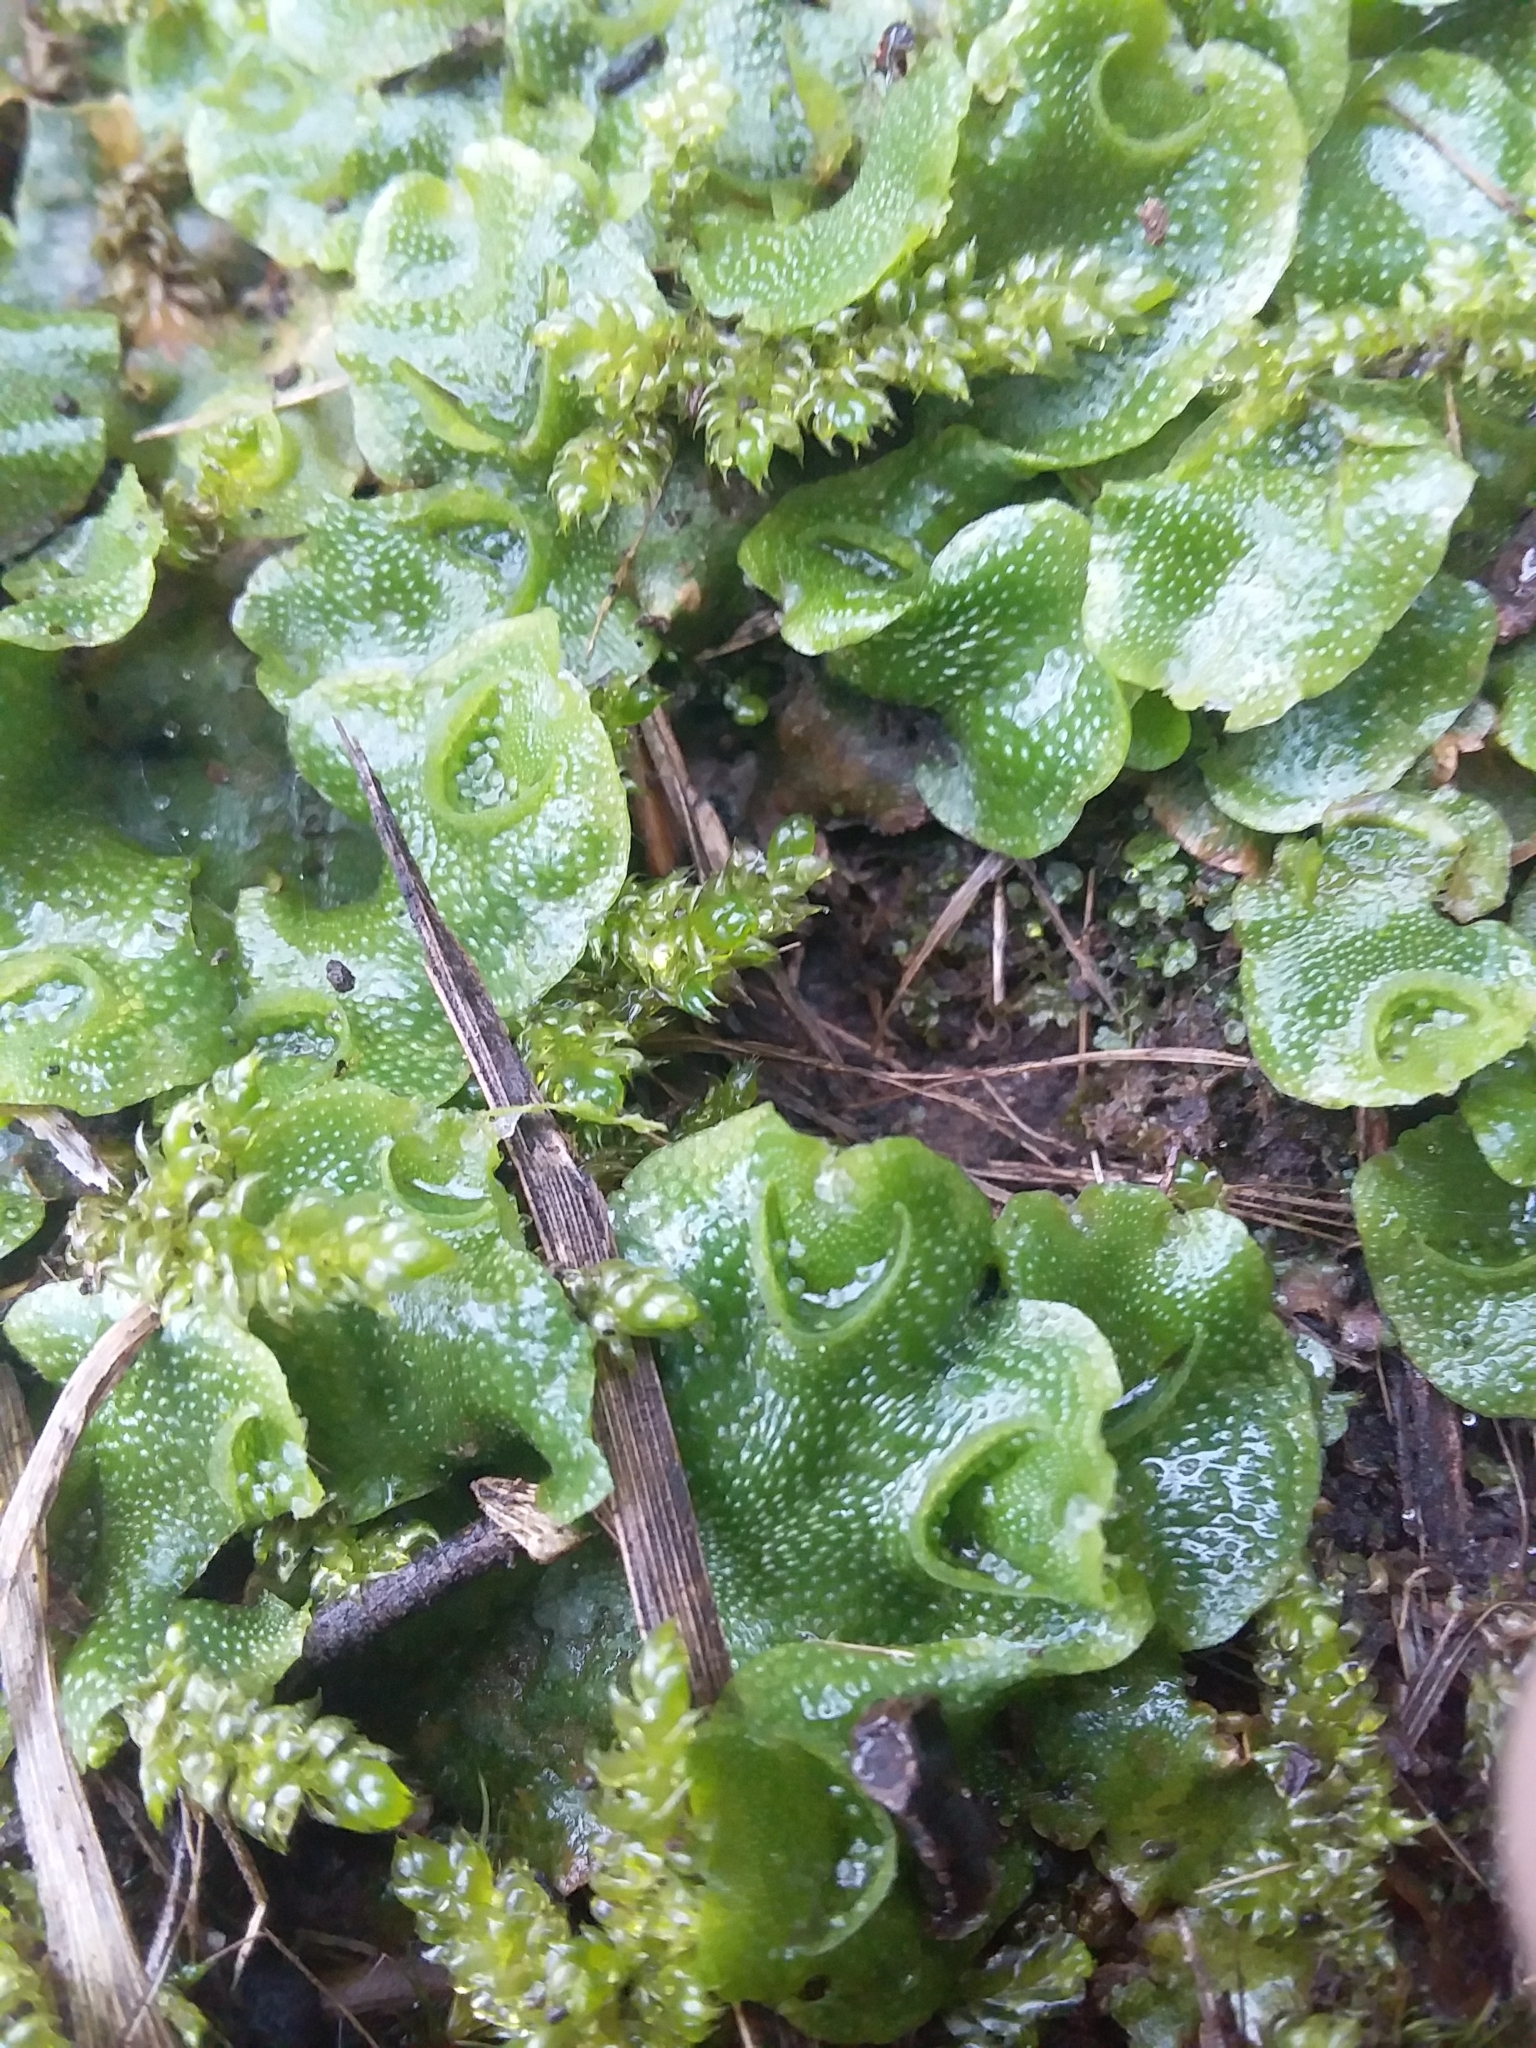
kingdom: Plantae
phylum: Marchantiophyta
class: Marchantiopsida
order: Lunulariales
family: Lunulariaceae
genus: Lunularia
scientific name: Lunularia cruciata
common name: Crescent-cup liverwort
